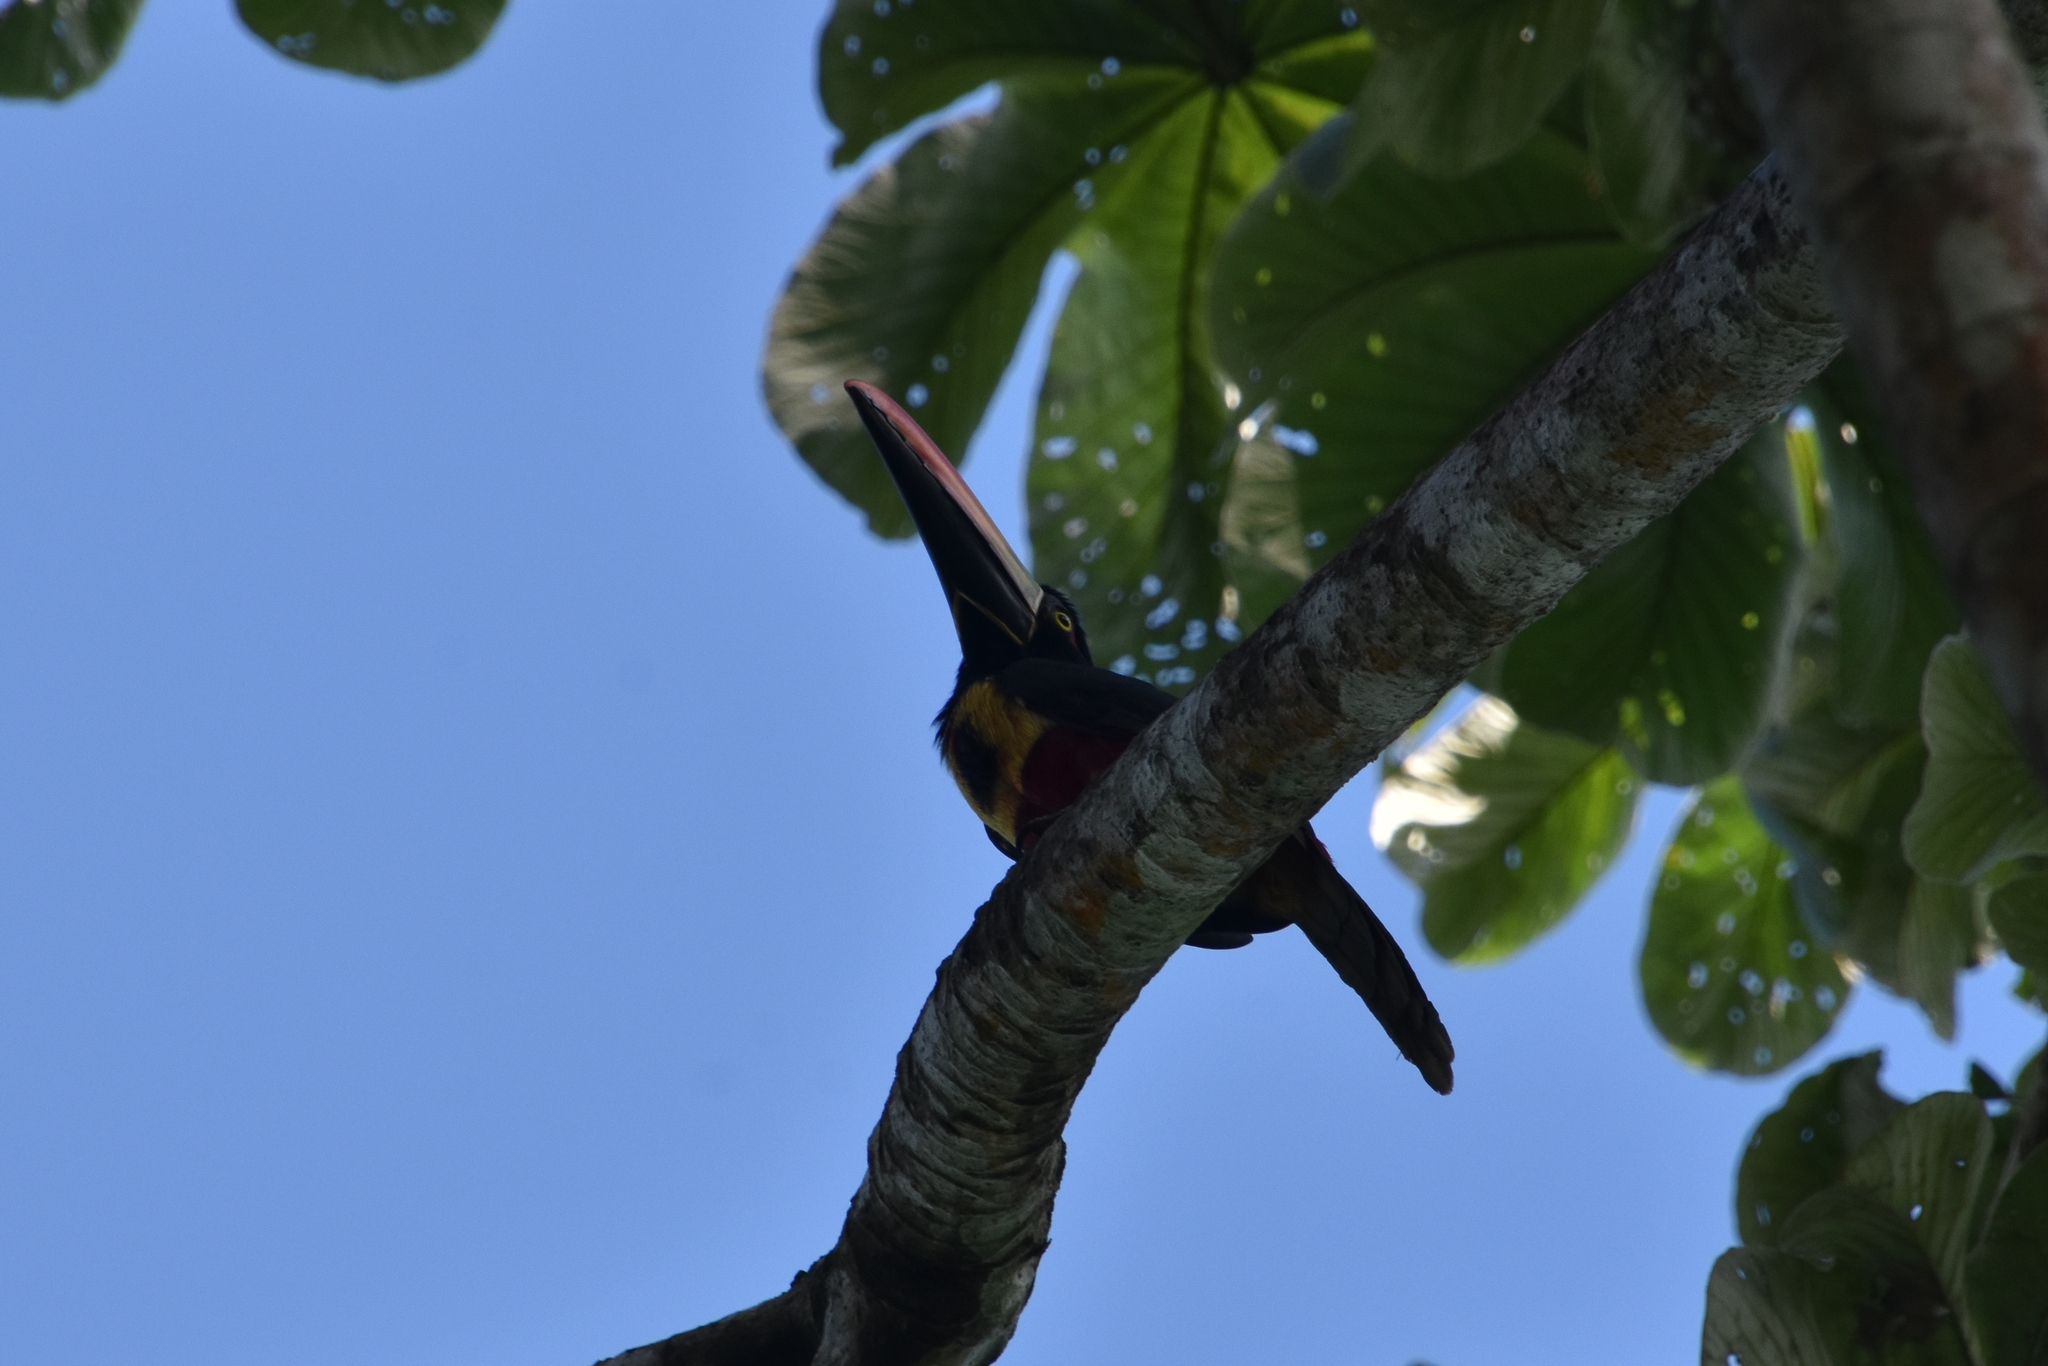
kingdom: Animalia
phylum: Chordata
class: Aves
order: Piciformes
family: Ramphastidae
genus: Pteroglossus
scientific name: Pteroglossus frantzii
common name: Fiery-billed aracari
